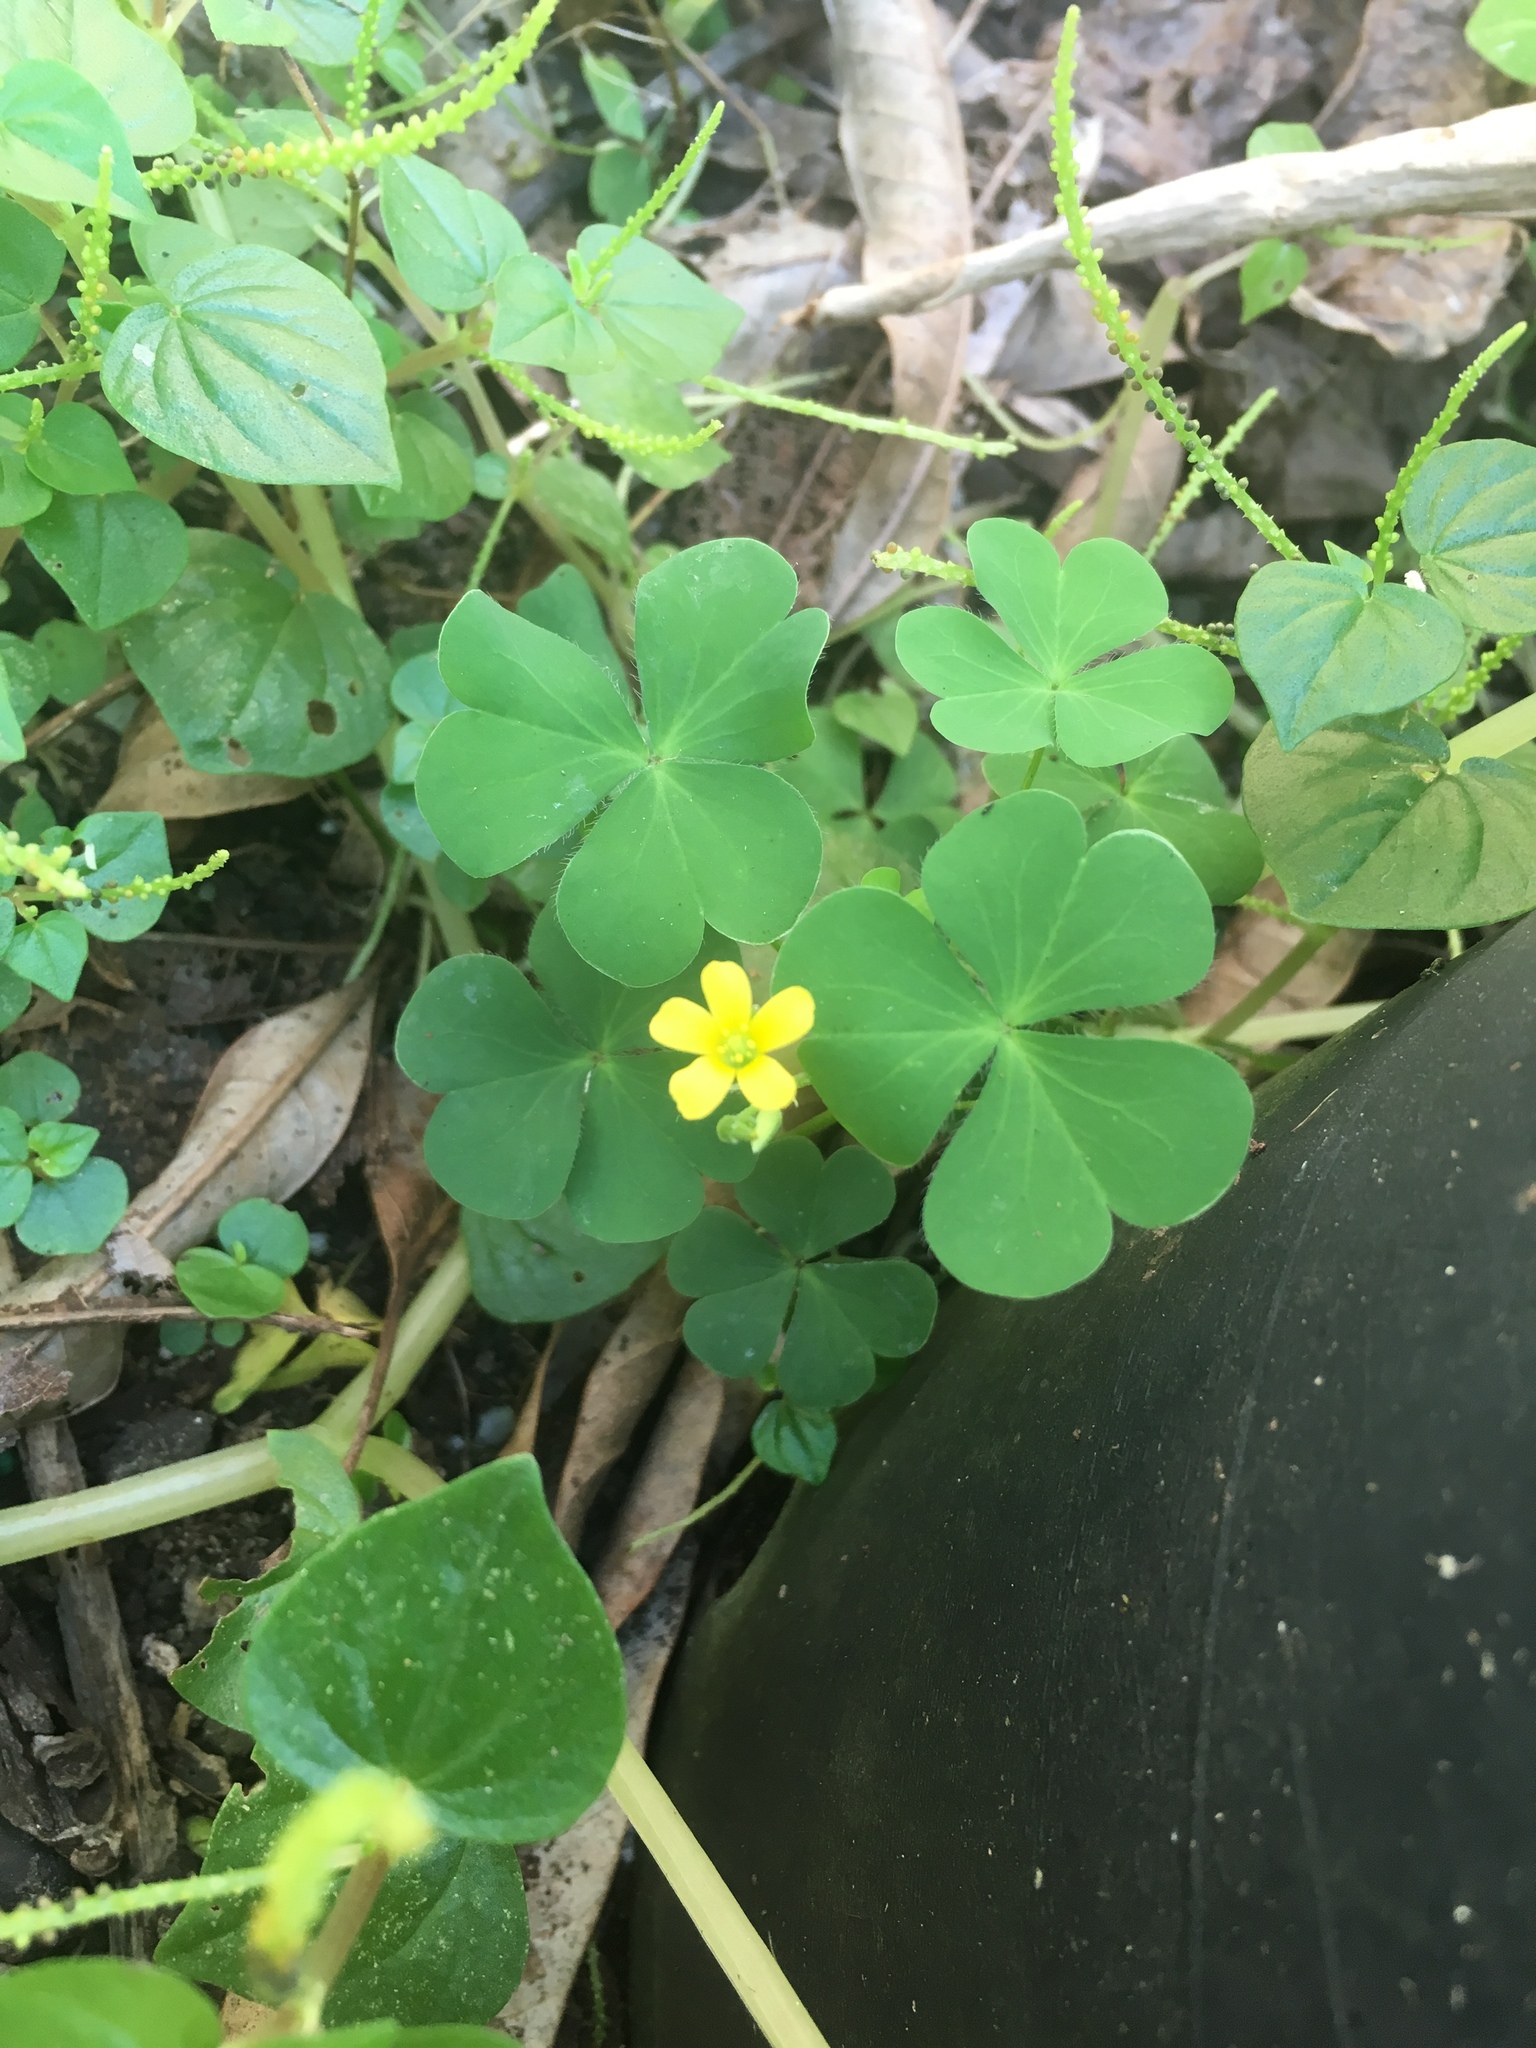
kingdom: Plantae
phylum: Tracheophyta
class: Magnoliopsida
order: Oxalidales
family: Oxalidaceae
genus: Oxalis
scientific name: Oxalis corniculata
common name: Procumbent yellow-sorrel
